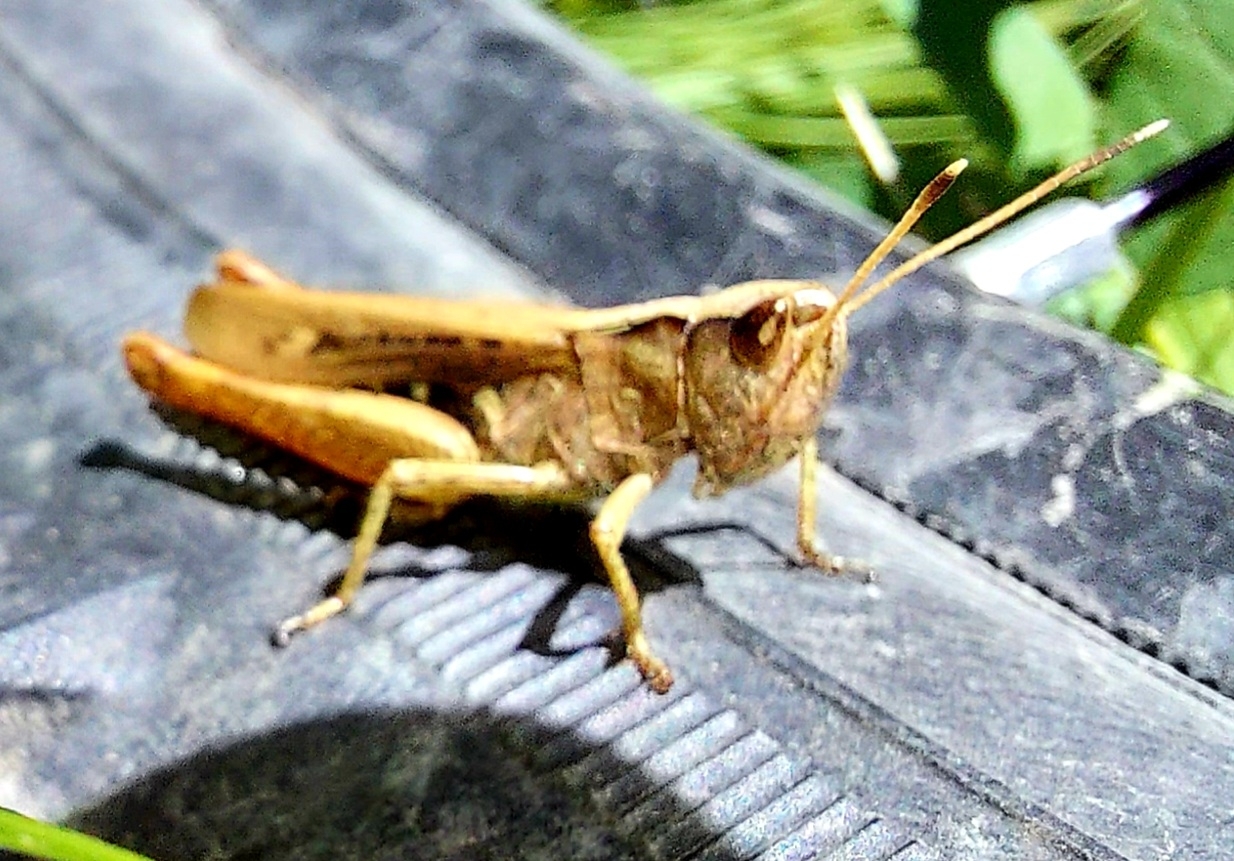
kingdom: Animalia
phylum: Arthropoda
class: Insecta
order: Orthoptera
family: Acrididae
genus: Gomphocerippus
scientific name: Gomphocerippus rufus
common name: Rufous grasshopper
